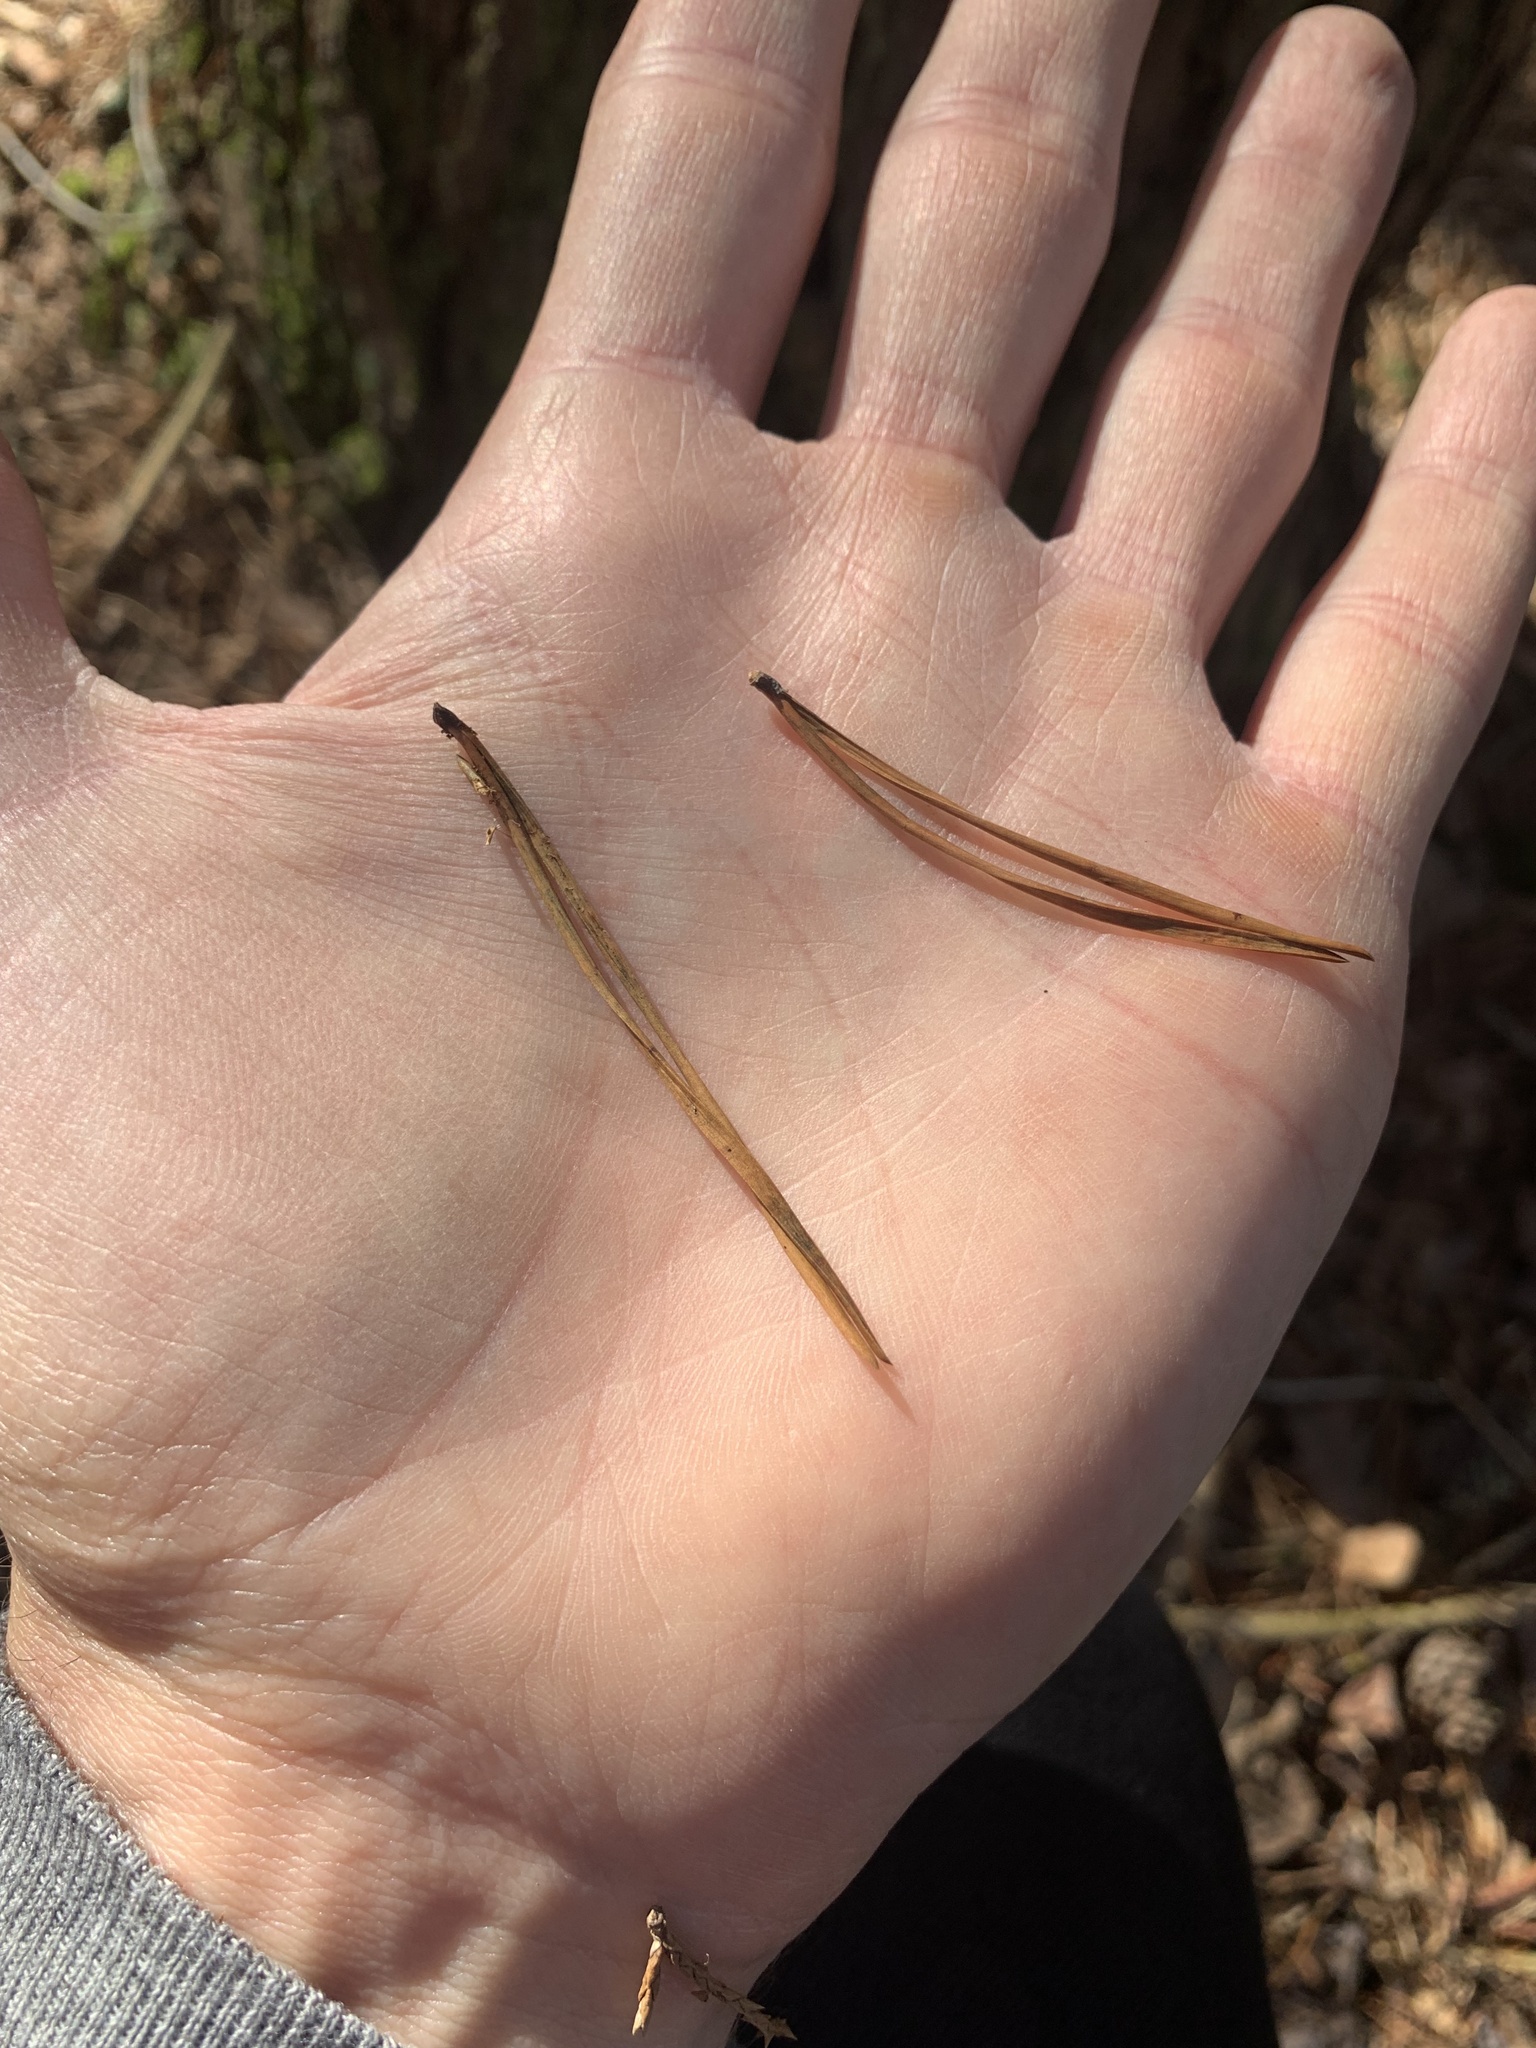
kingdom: Plantae
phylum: Tracheophyta
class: Pinopsida
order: Pinales
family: Pinaceae
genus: Pinus
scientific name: Pinus virginiana
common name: Scrub pine
